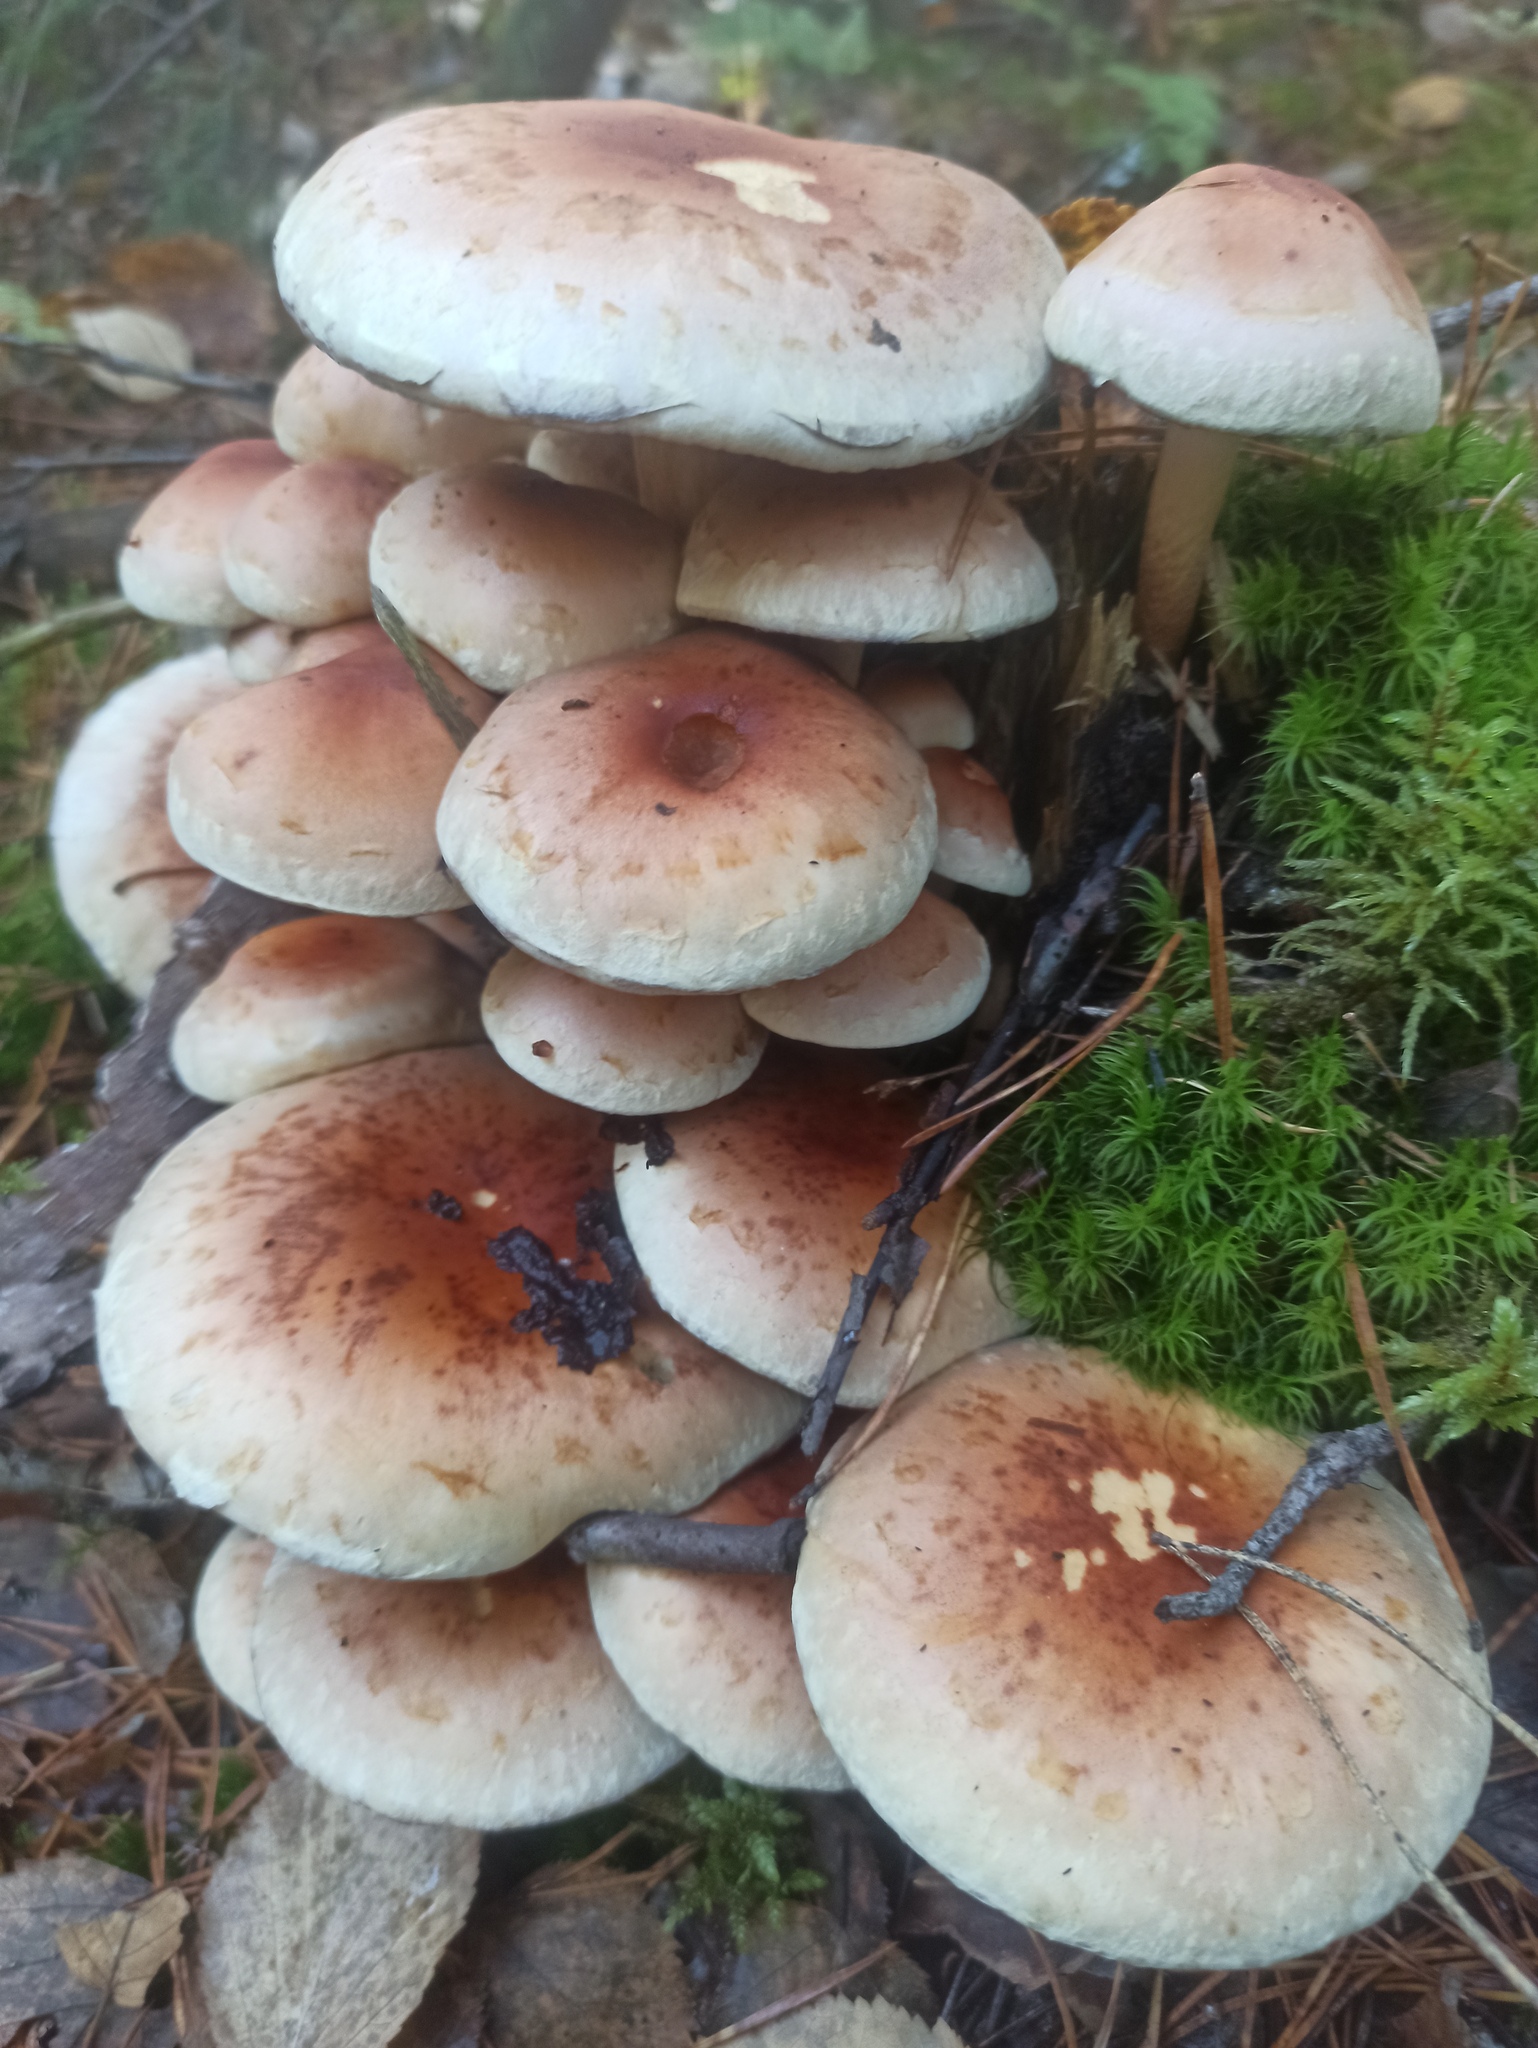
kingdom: Fungi
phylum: Basidiomycota
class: Agaricomycetes
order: Agaricales
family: Strophariaceae
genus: Hypholoma
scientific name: Hypholoma lateritium
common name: Brick caps
